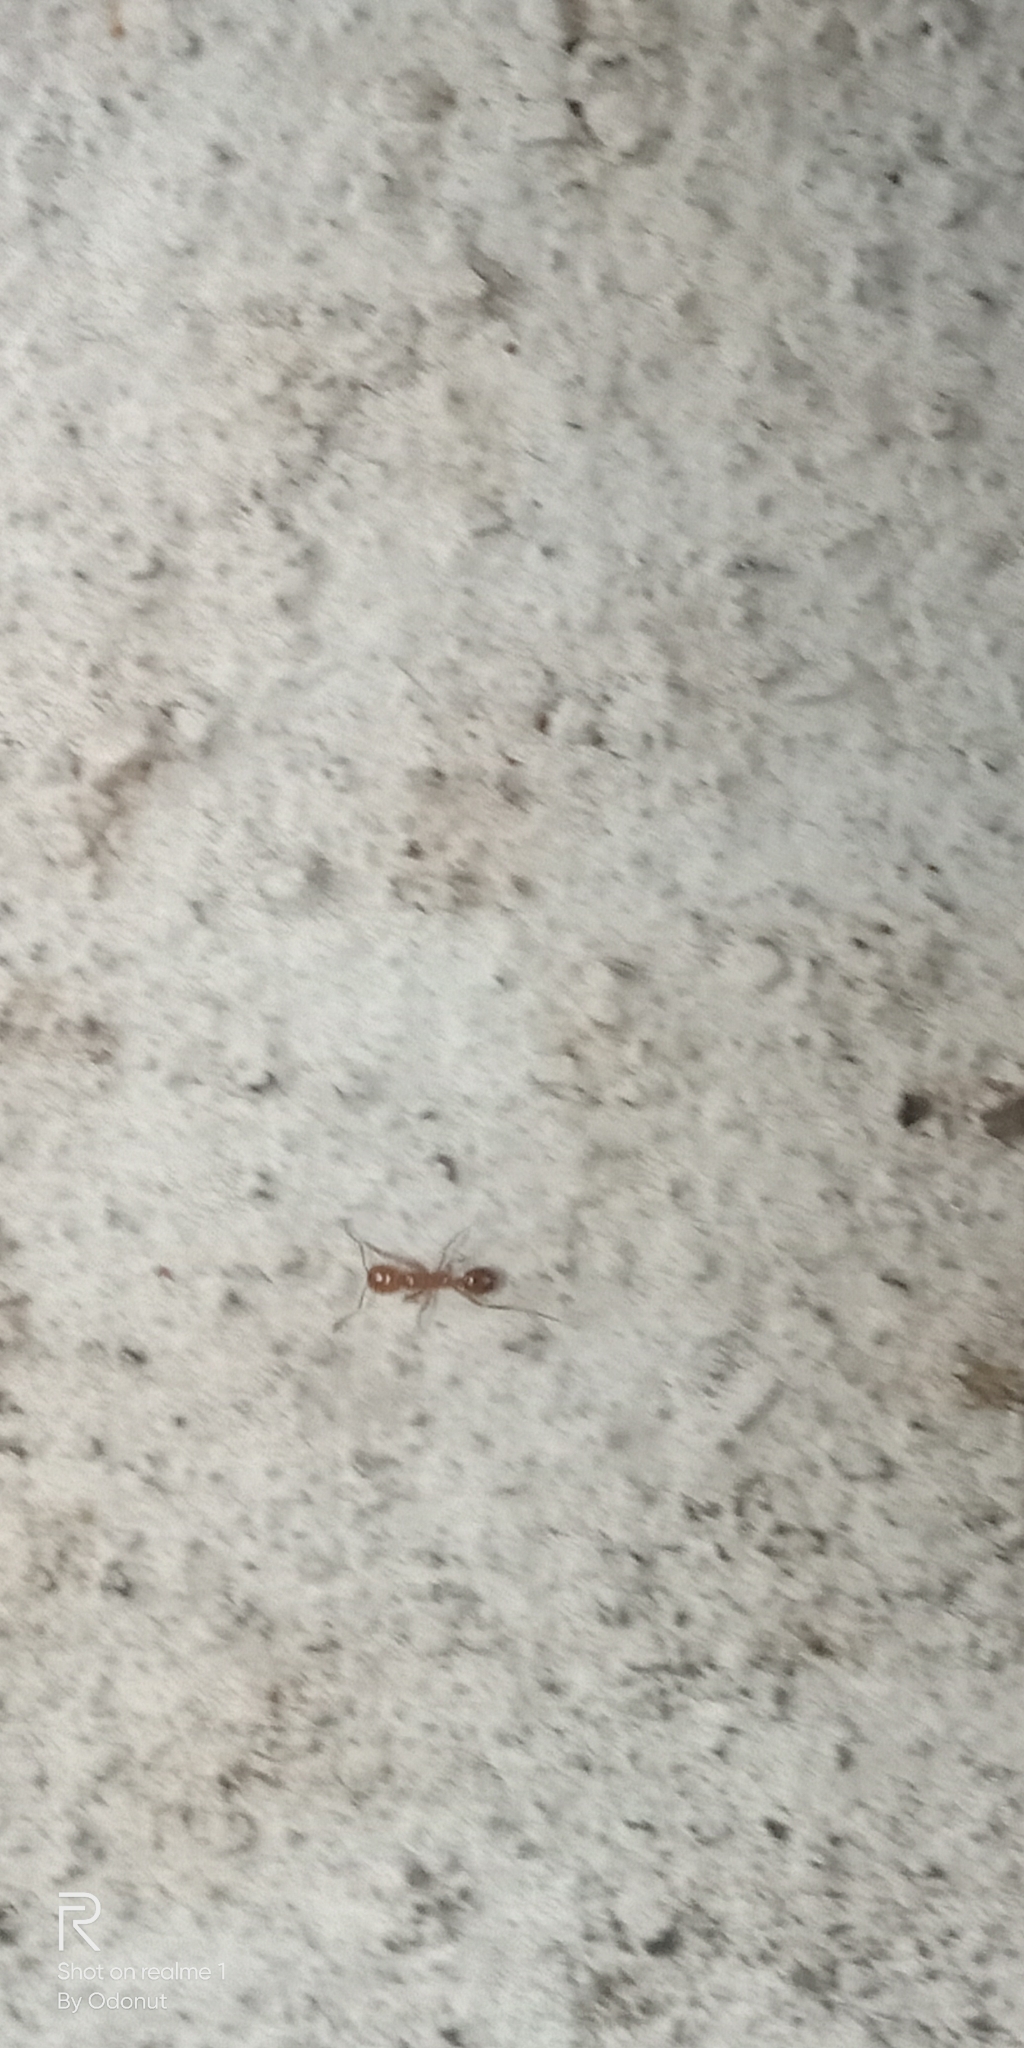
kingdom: Animalia
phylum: Arthropoda
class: Insecta
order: Hymenoptera
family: Formicidae
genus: Solenopsis
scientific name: Solenopsis geminata
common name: Tropical fire ant
